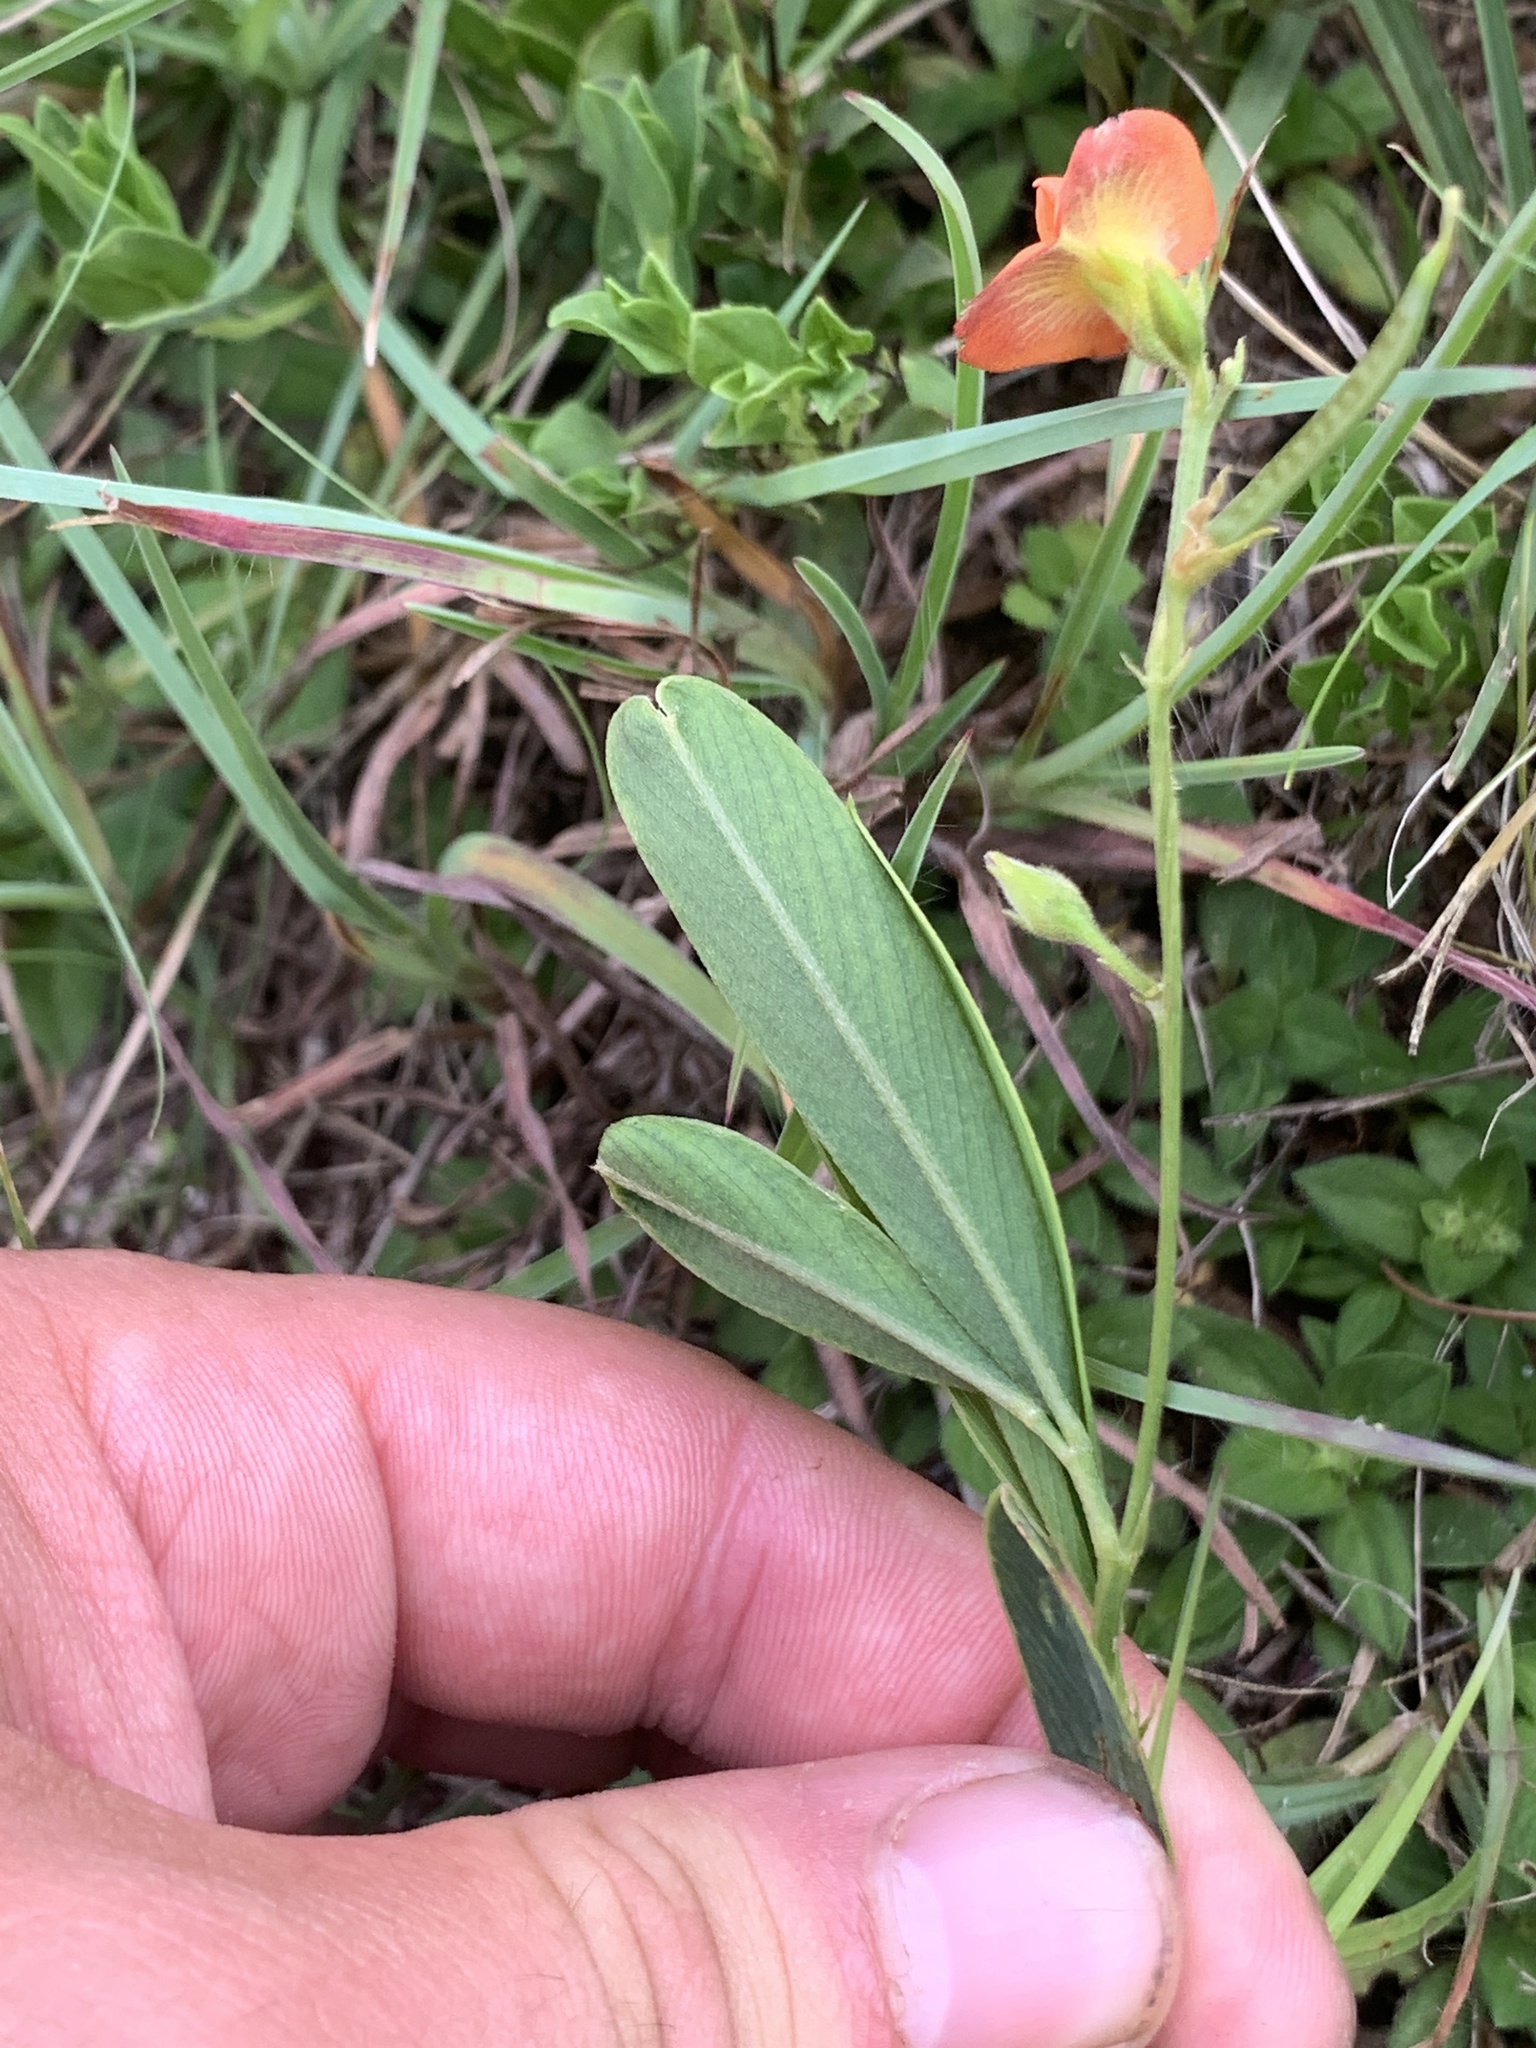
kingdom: Plantae
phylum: Tracheophyta
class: Magnoliopsida
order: Fabales
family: Fabaceae
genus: Tephrosia
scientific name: Tephrosia elongata
